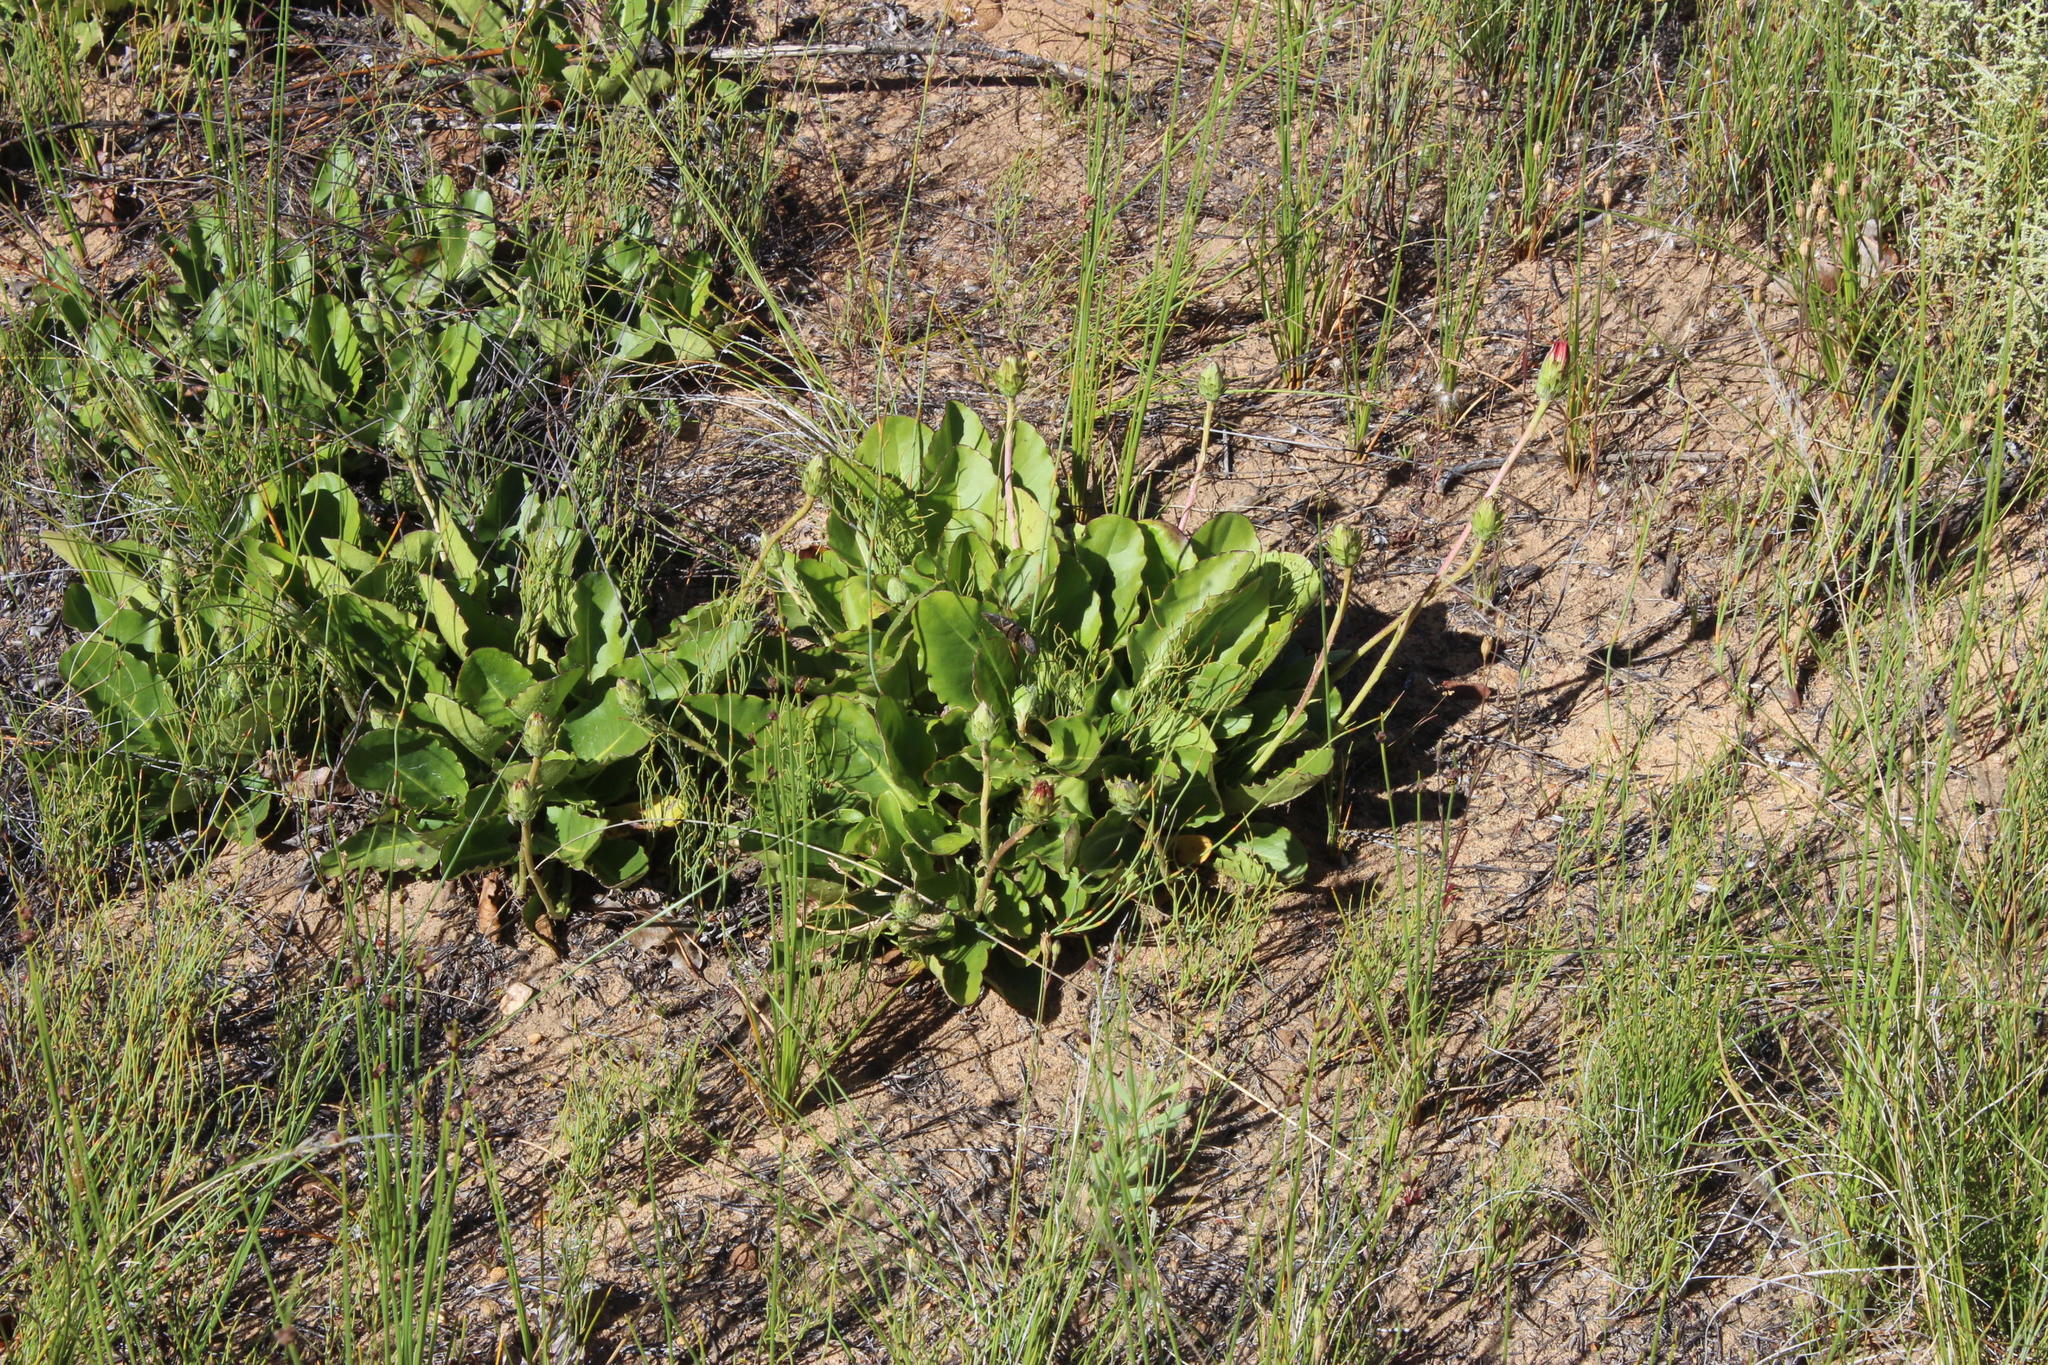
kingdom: Plantae
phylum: Tracheophyta
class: Magnoliopsida
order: Asterales
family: Asteraceae
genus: Gerbera
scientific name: Gerbera crocea
